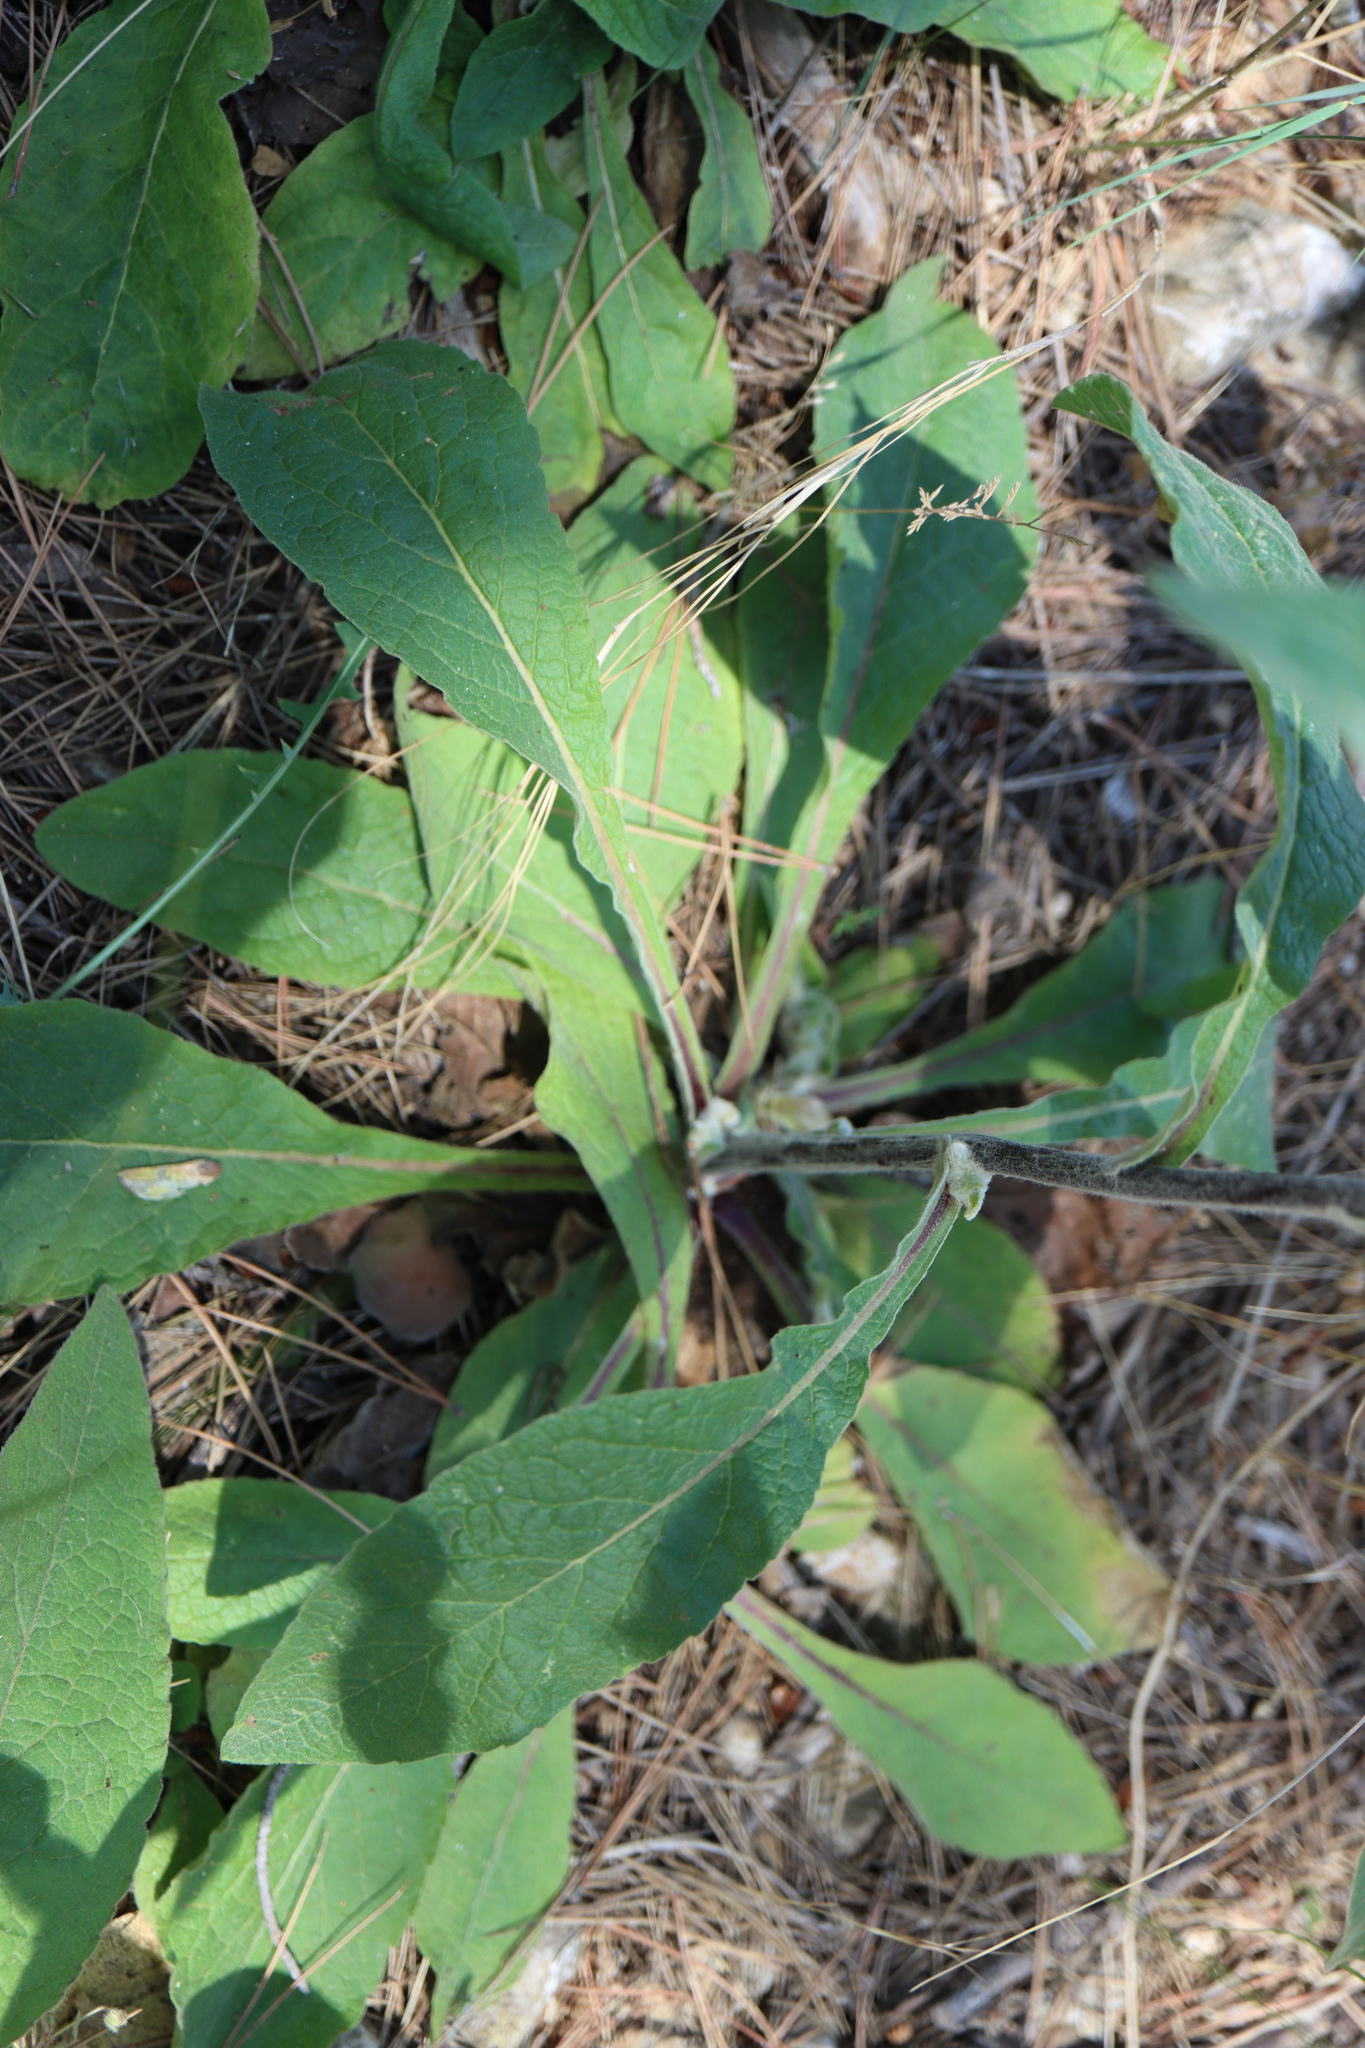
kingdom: Plantae
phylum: Tracheophyta
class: Magnoliopsida
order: Asterales
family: Asteraceae
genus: Pentanema
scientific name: Pentanema squarrosum
